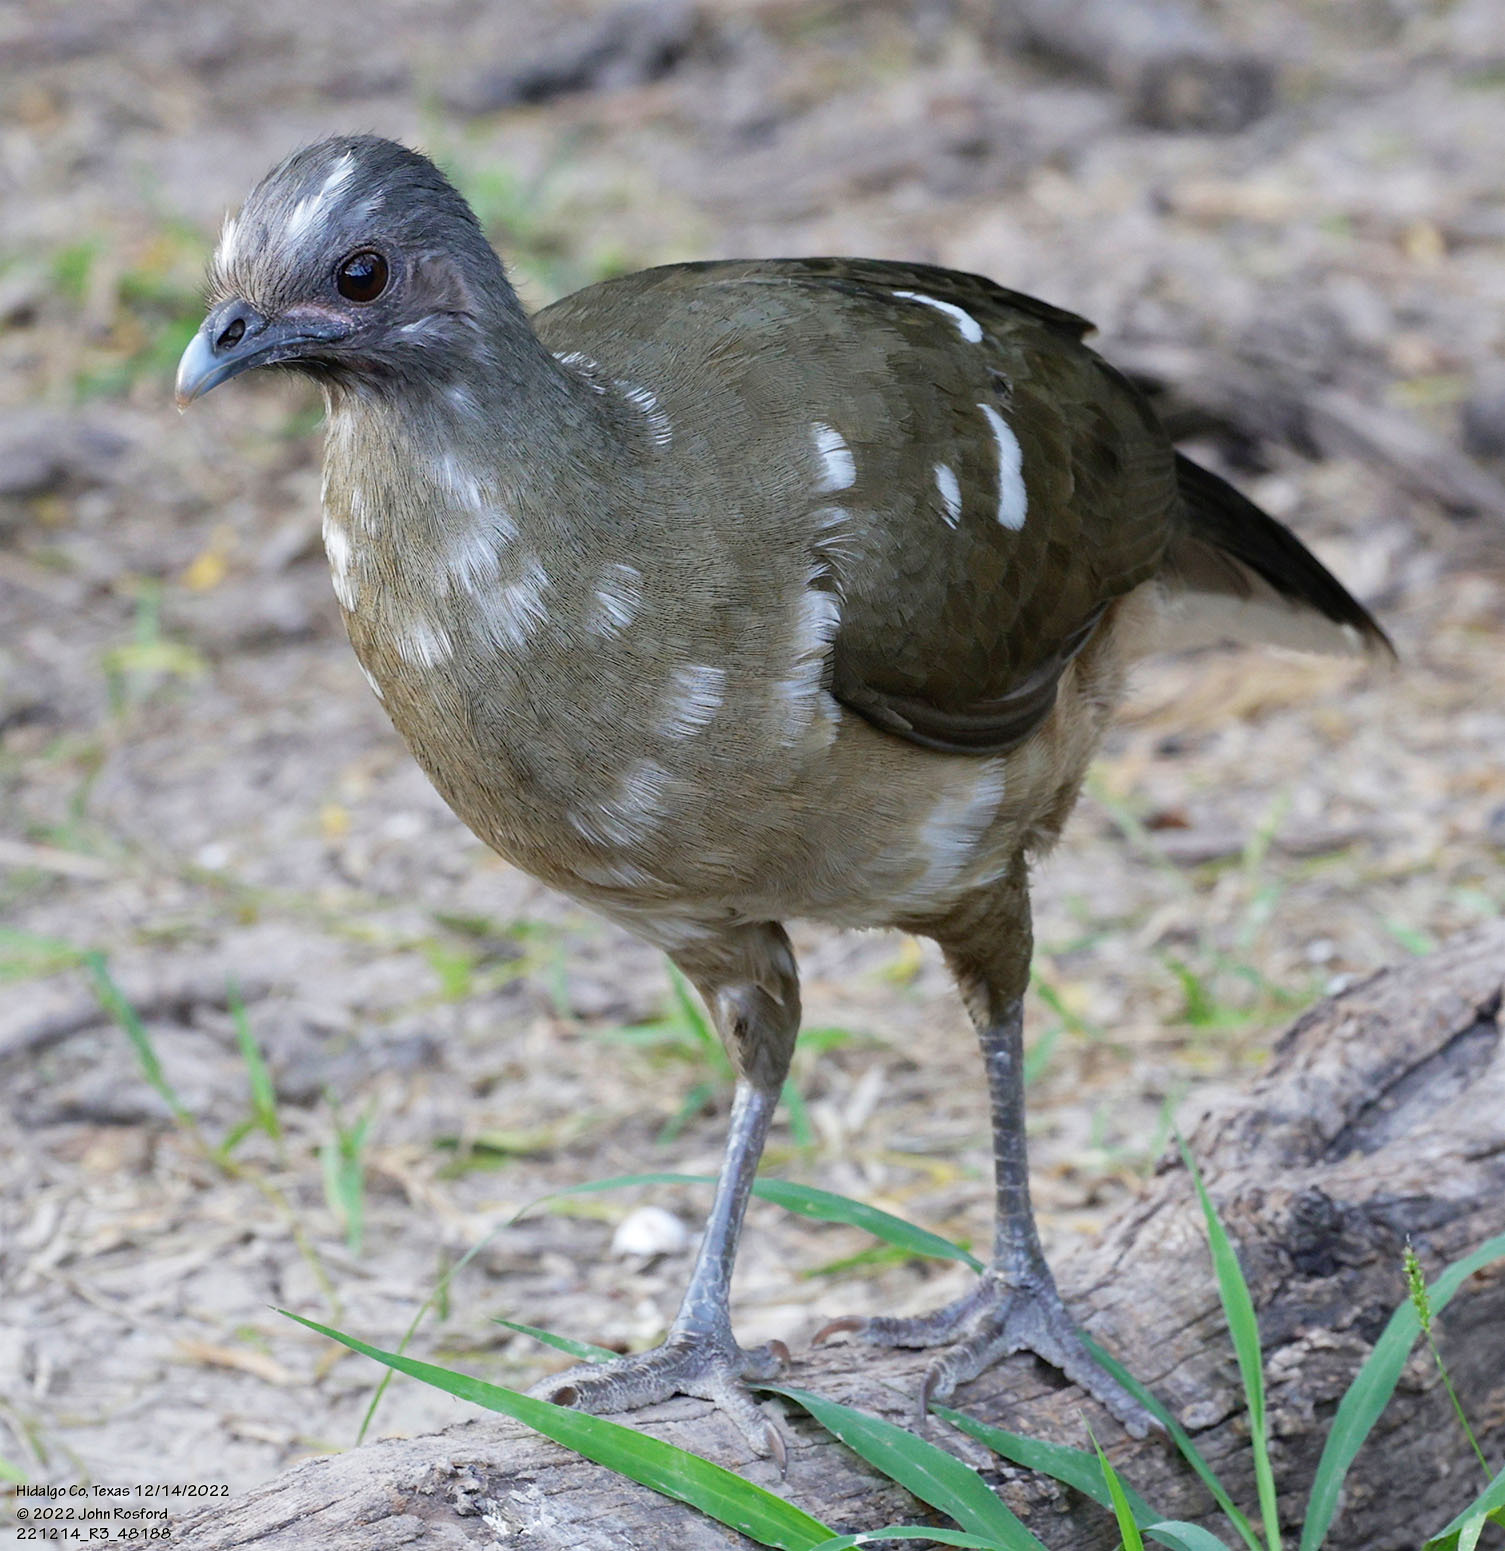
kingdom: Animalia
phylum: Chordata
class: Aves
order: Galliformes
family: Cracidae
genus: Ortalis
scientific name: Ortalis vetula
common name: Plain chachalaca
